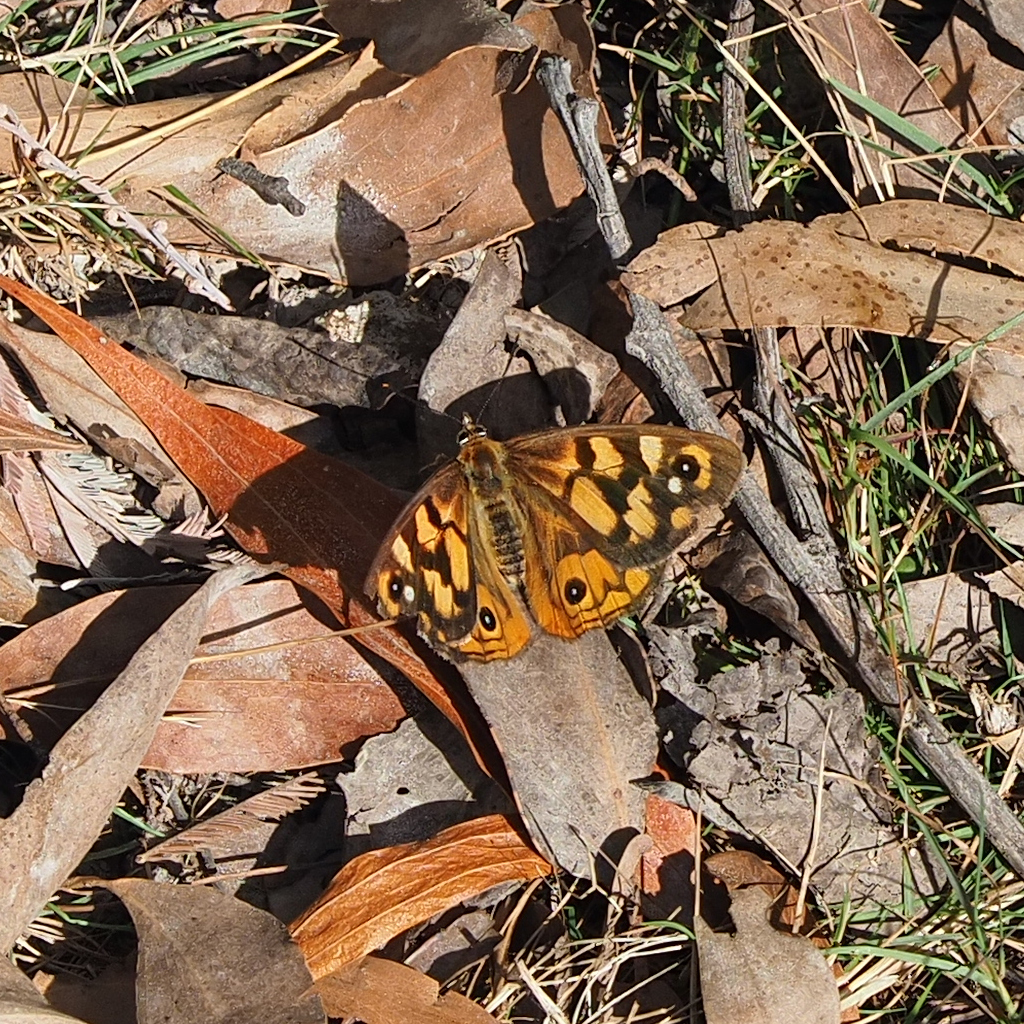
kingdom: Animalia
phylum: Arthropoda
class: Insecta
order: Lepidoptera
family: Nymphalidae
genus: Heteronympha
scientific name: Heteronympha penelope
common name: Shouldered brown
